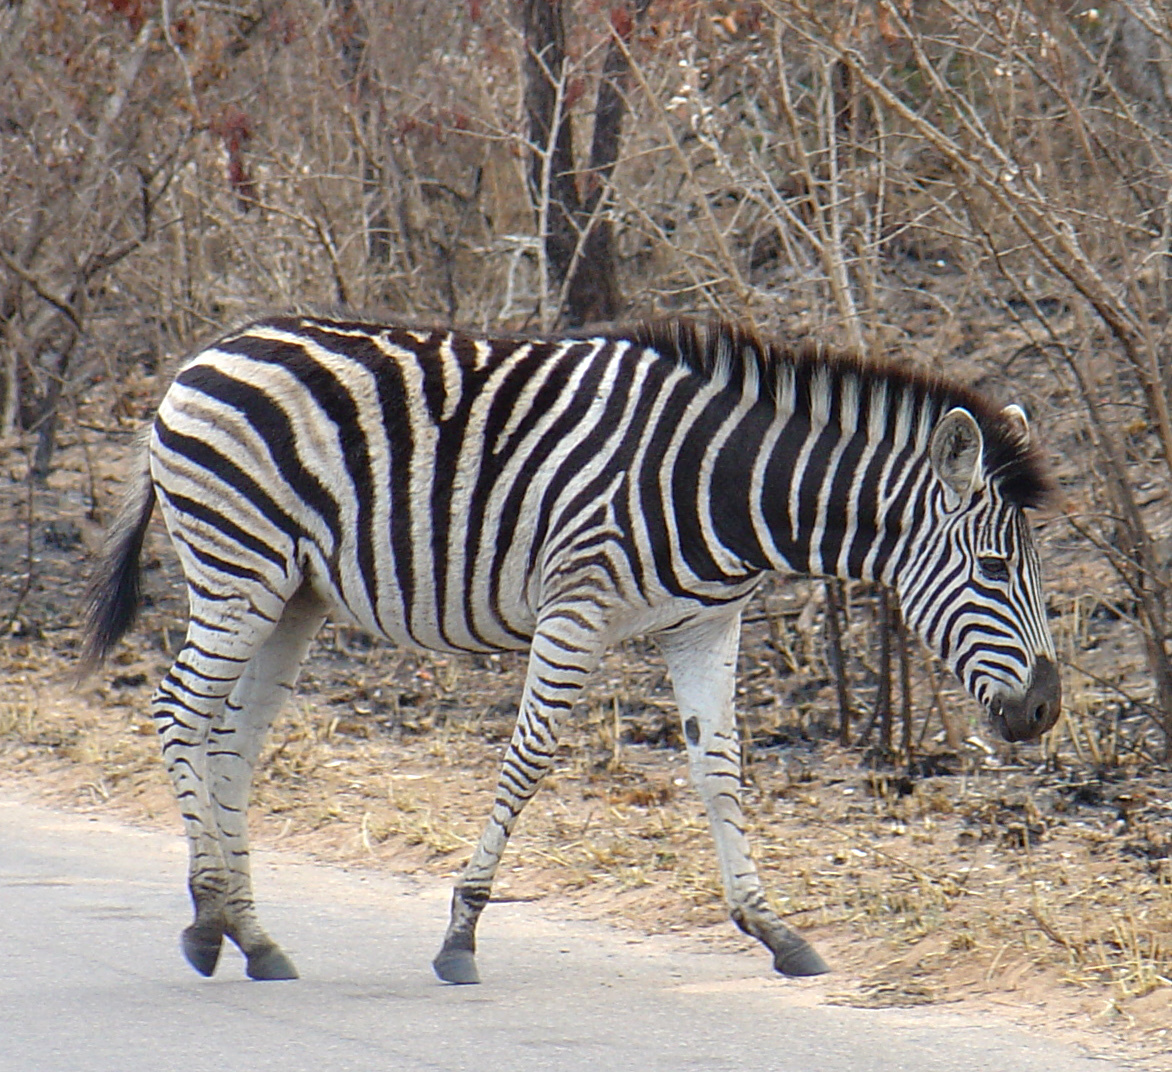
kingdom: Animalia
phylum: Chordata
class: Mammalia
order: Perissodactyla
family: Equidae
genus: Equus
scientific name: Equus quagga
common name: Plains zebra
